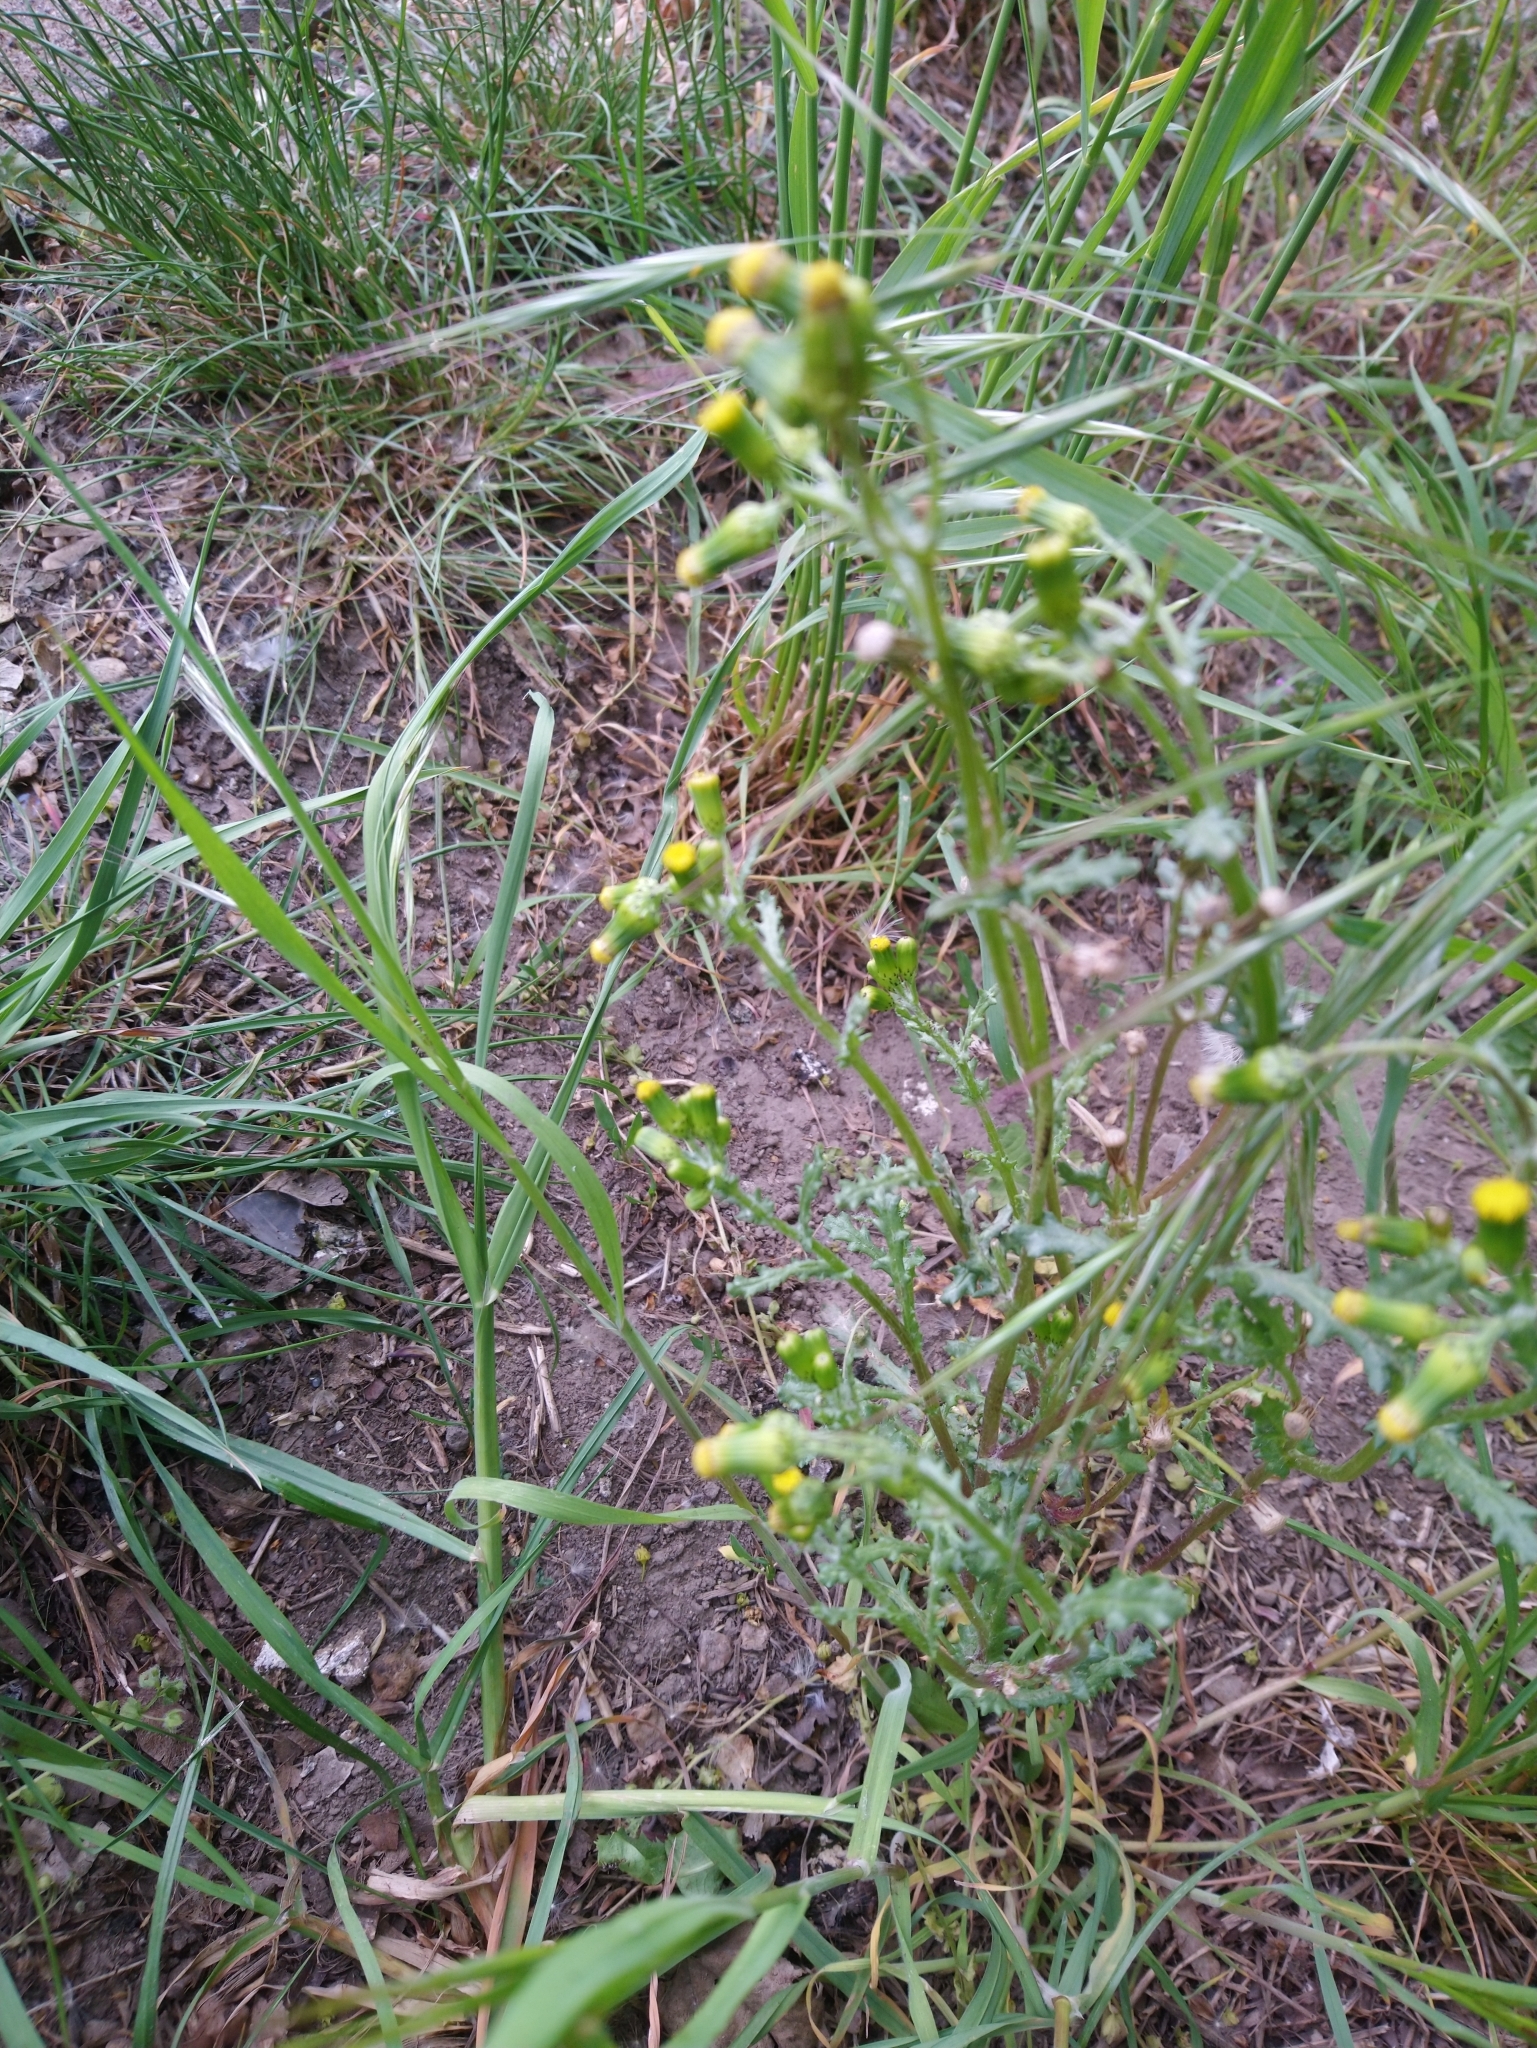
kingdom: Plantae
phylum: Tracheophyta
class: Magnoliopsida
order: Asterales
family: Asteraceae
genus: Senecio
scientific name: Senecio vulgaris
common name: Old-man-in-the-spring
